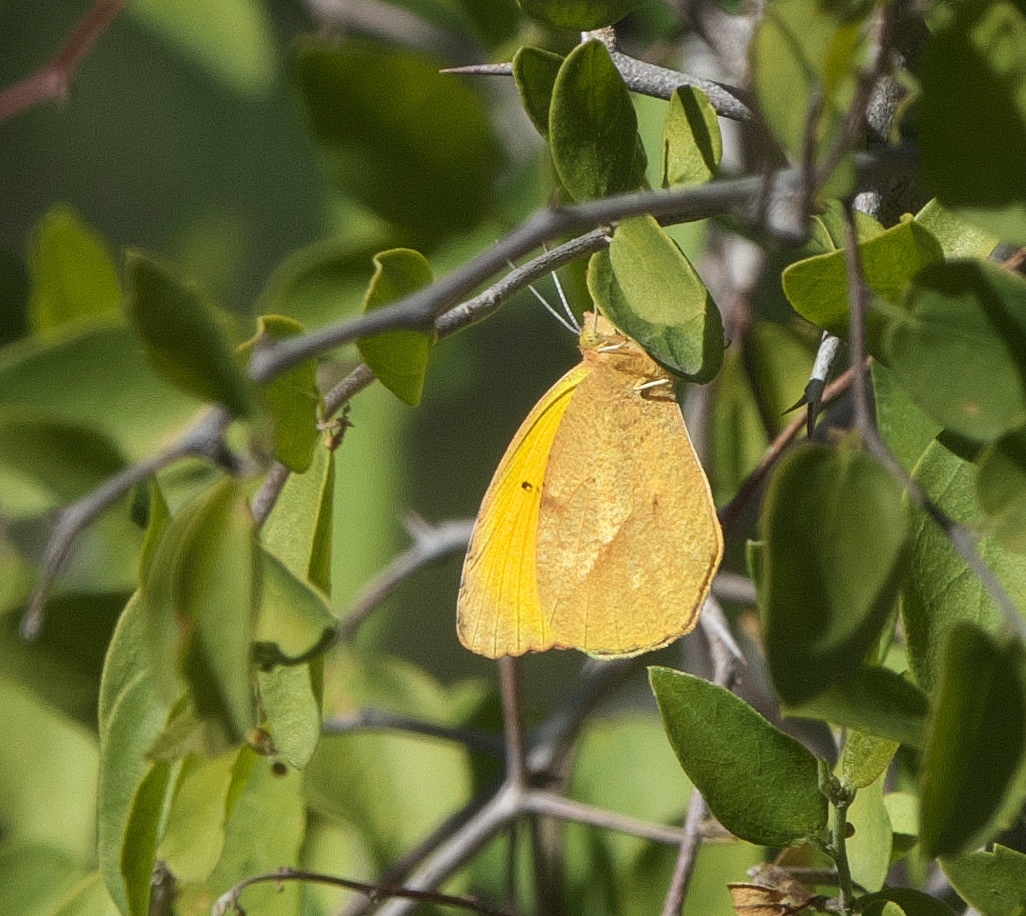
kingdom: Animalia
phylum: Arthropoda
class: Insecta
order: Lepidoptera
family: Pieridae
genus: Abaeis
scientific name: Abaeis nicippe
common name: Sleepy orange
